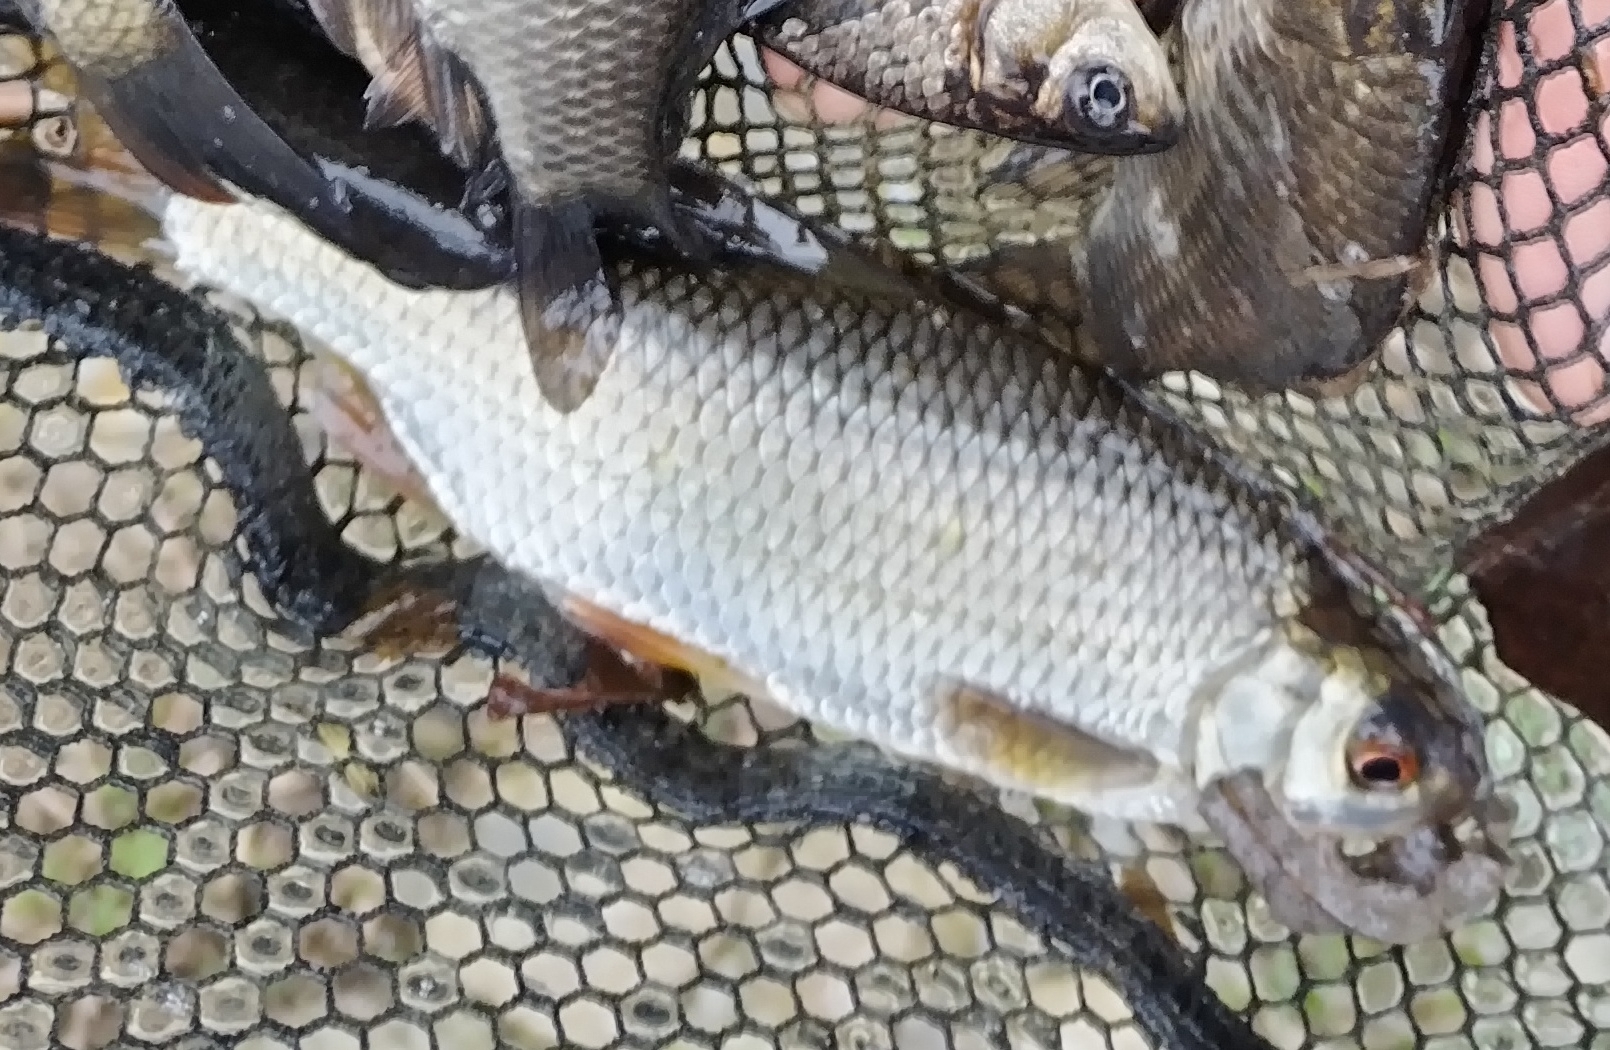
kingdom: Animalia
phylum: Chordata
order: Cypriniformes
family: Cyprinidae
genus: Rutilus
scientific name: Rutilus rutilus
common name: Roach
